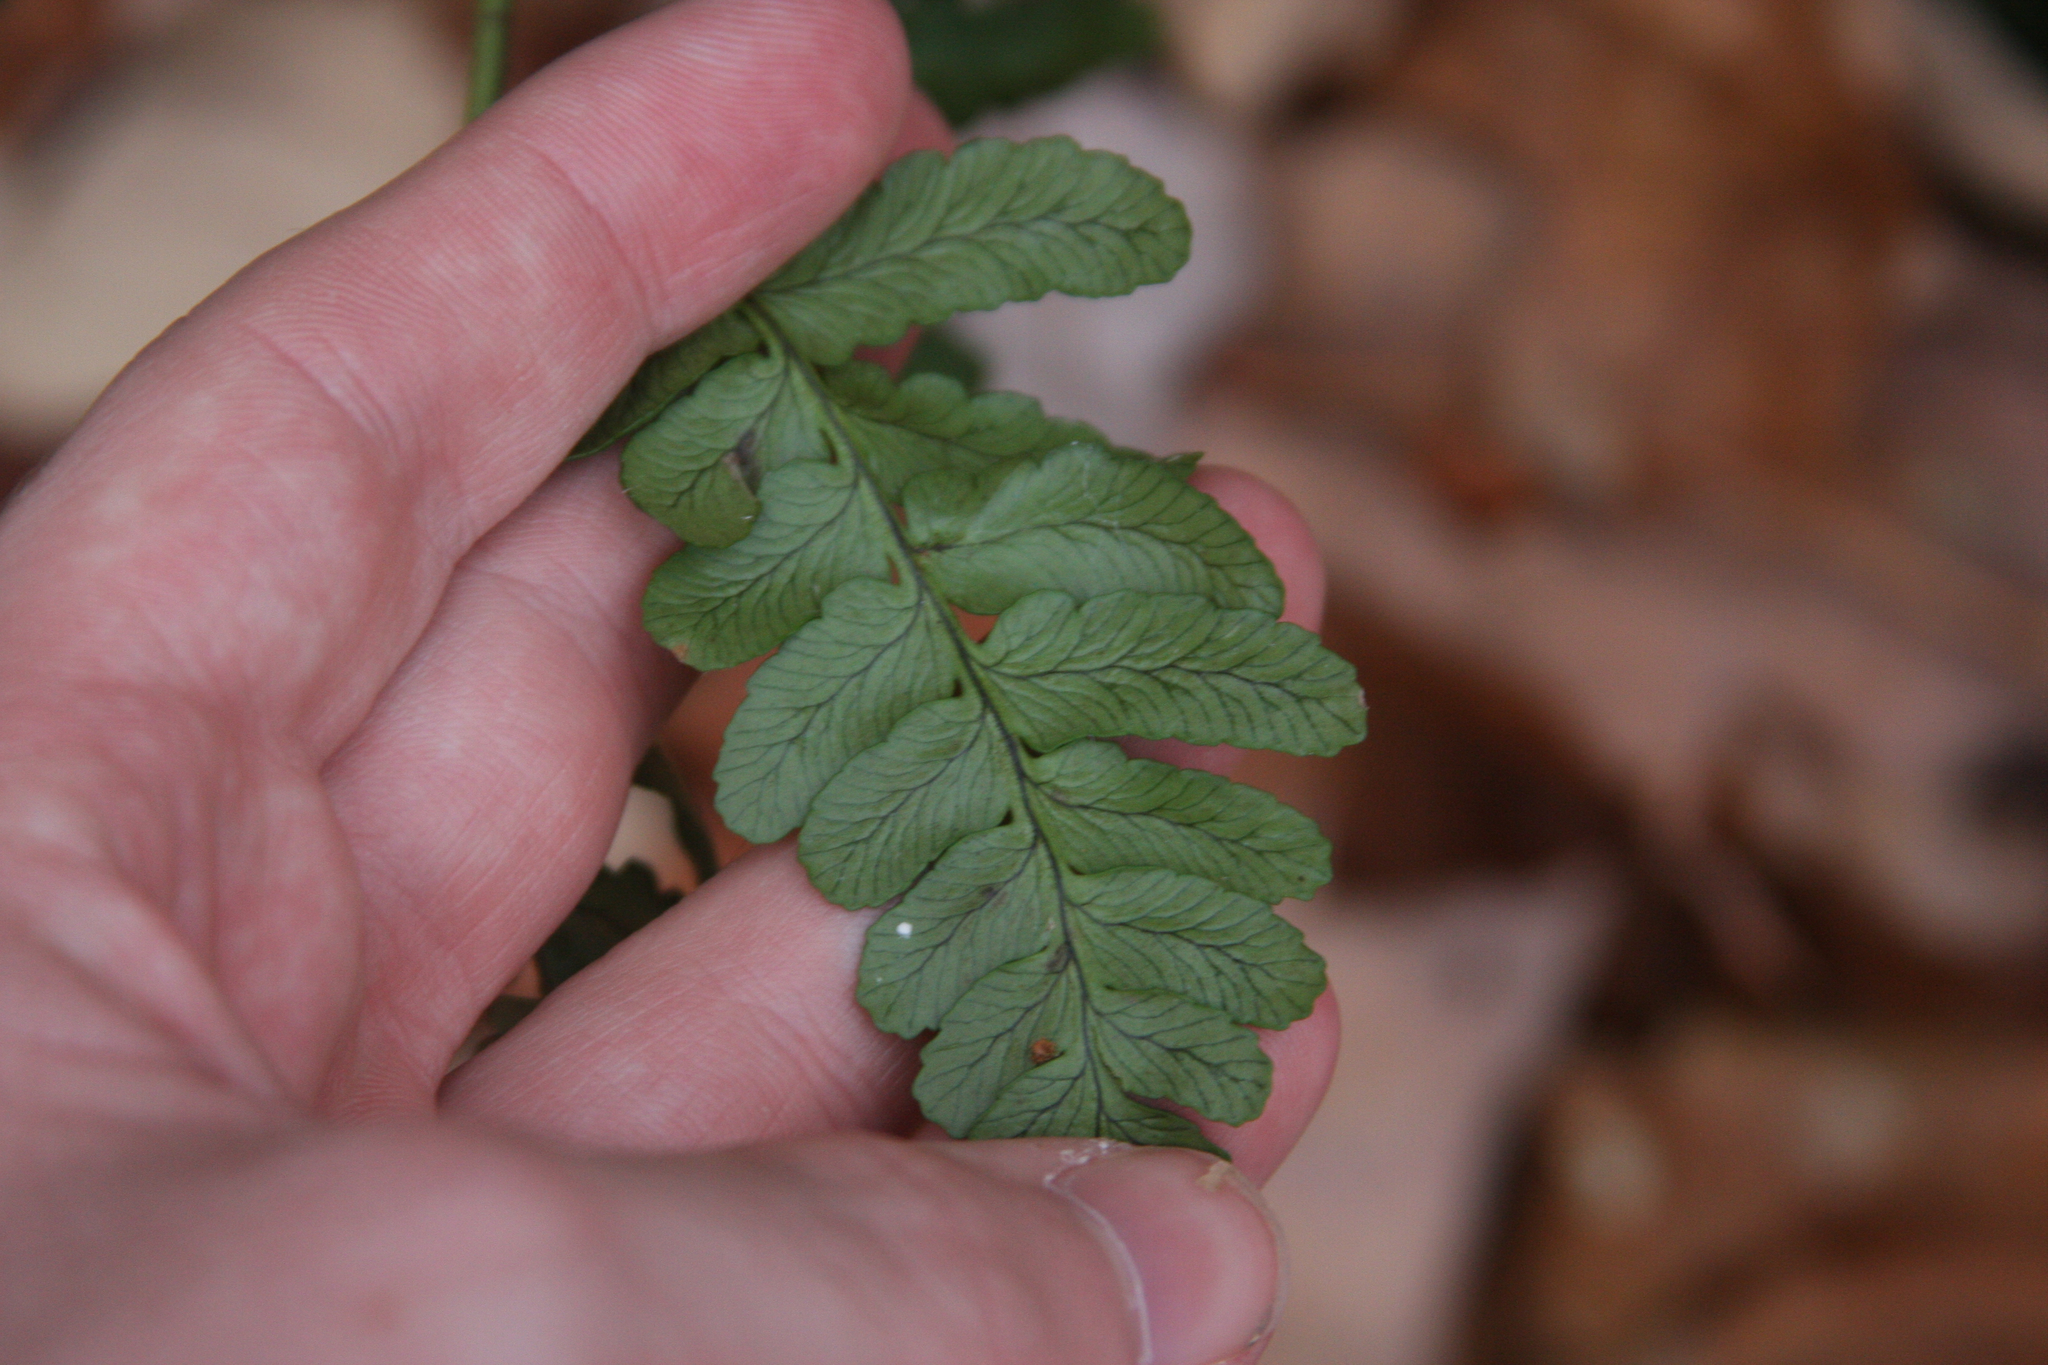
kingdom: Plantae
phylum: Tracheophyta
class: Polypodiopsida
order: Polypodiales
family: Dryopteridaceae
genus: Dryopteris
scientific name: Dryopteris marginalis
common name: Marginal wood fern
